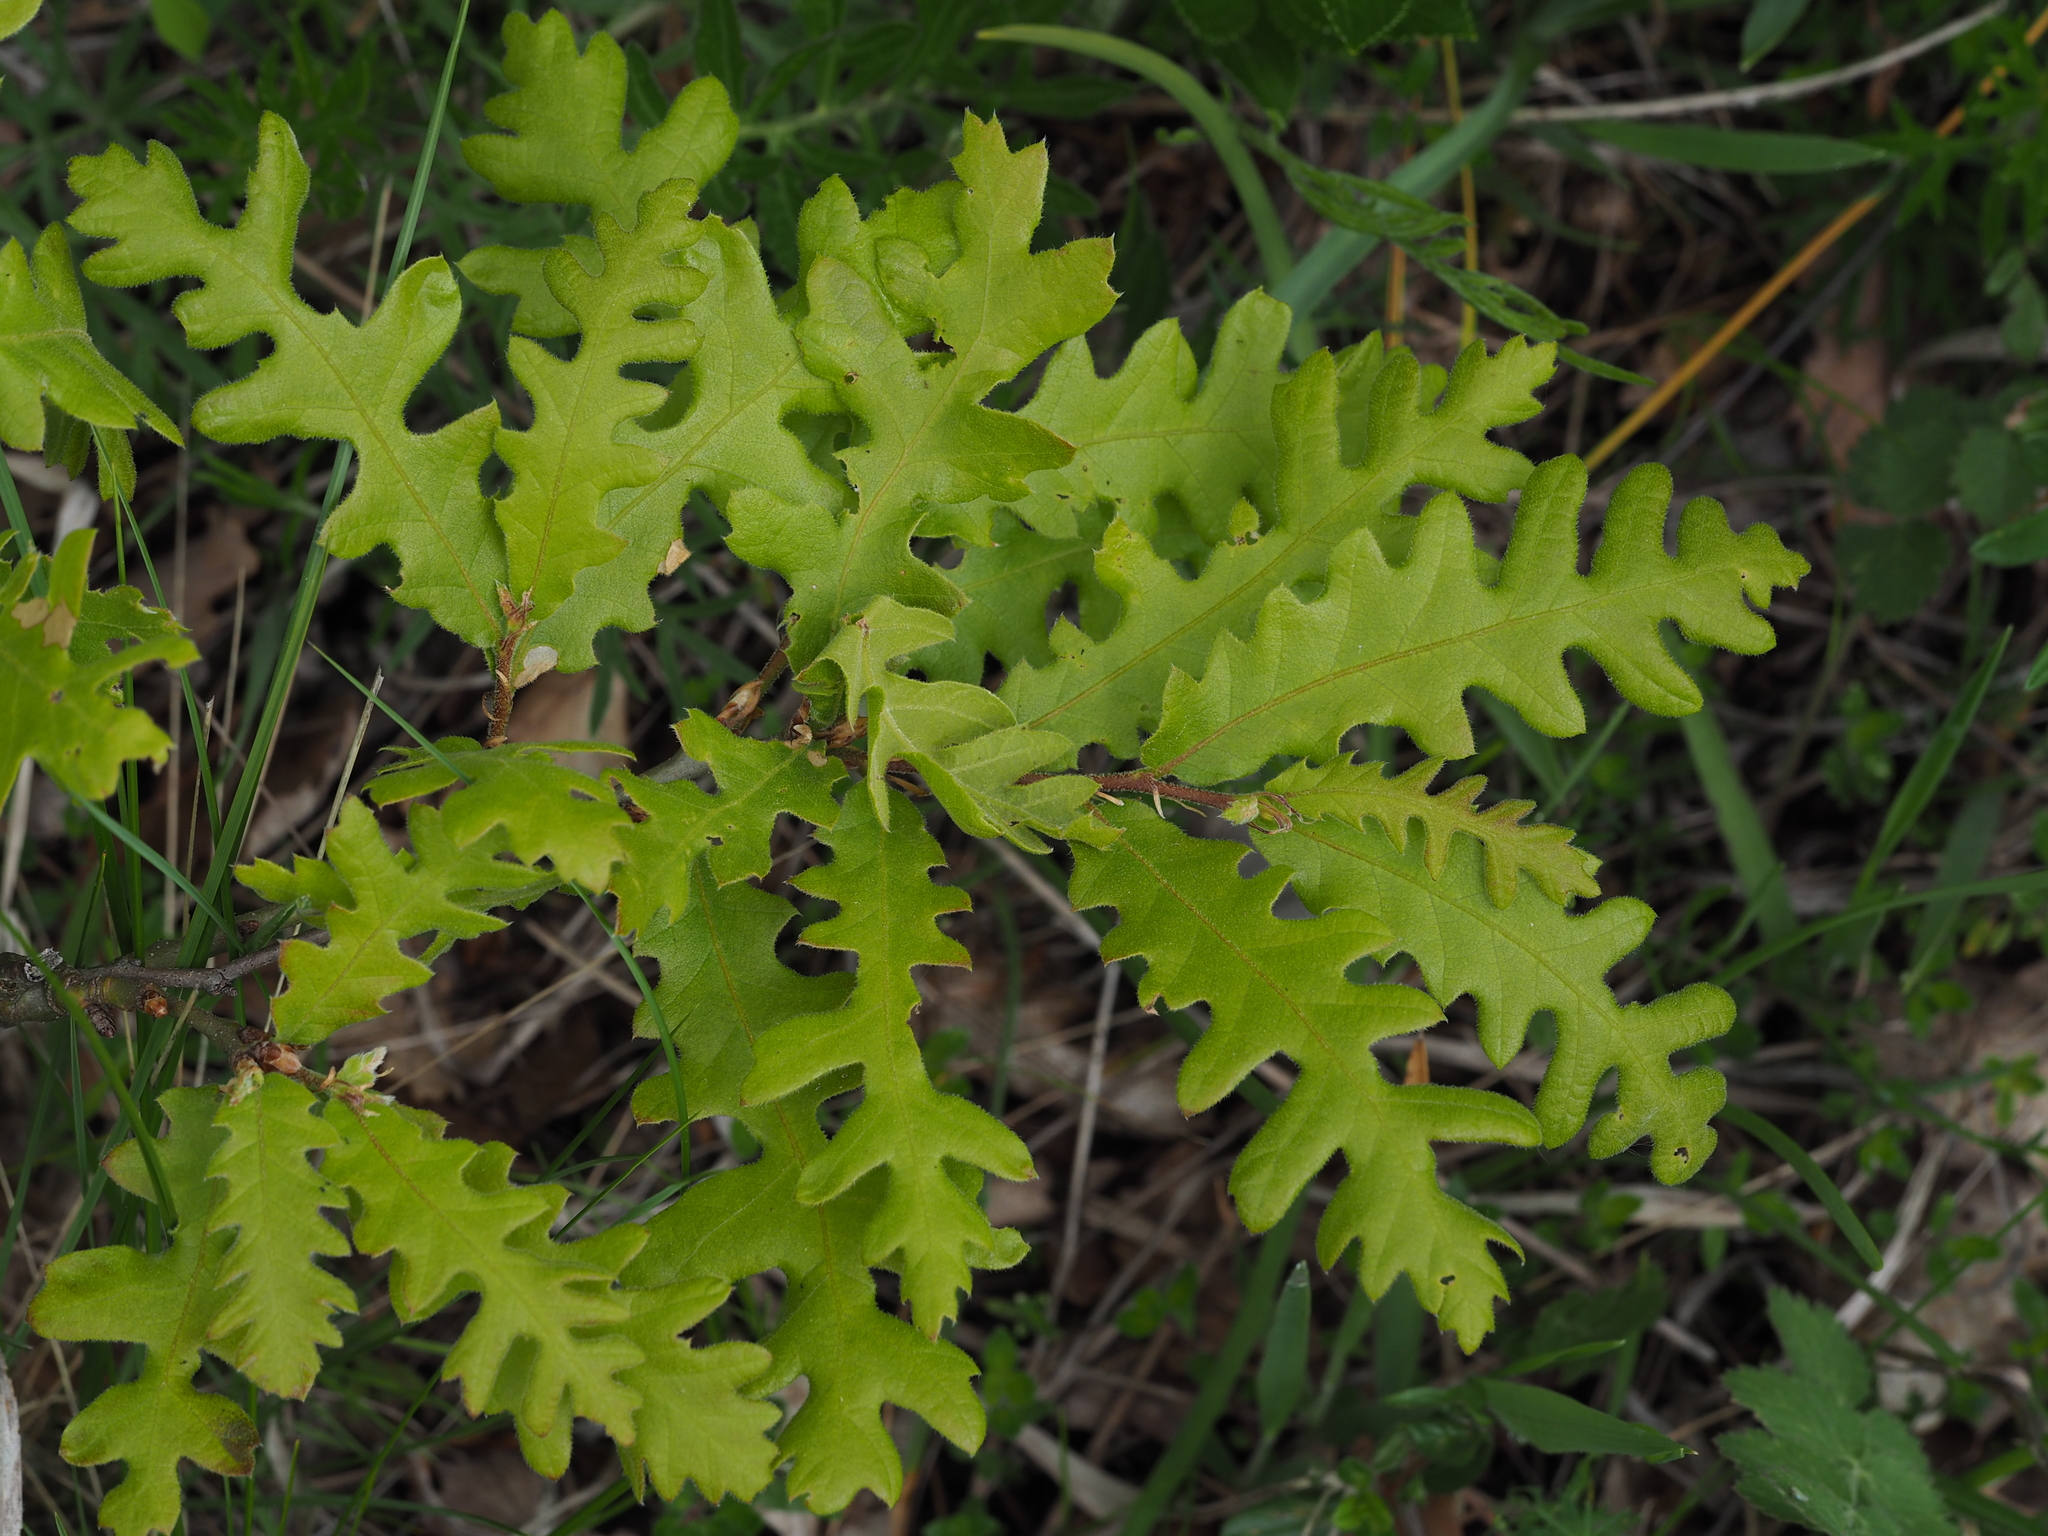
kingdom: Plantae
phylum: Tracheophyta
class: Magnoliopsida
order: Fagales
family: Fagaceae
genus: Quercus
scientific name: Quercus cerris
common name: Turkey oak
